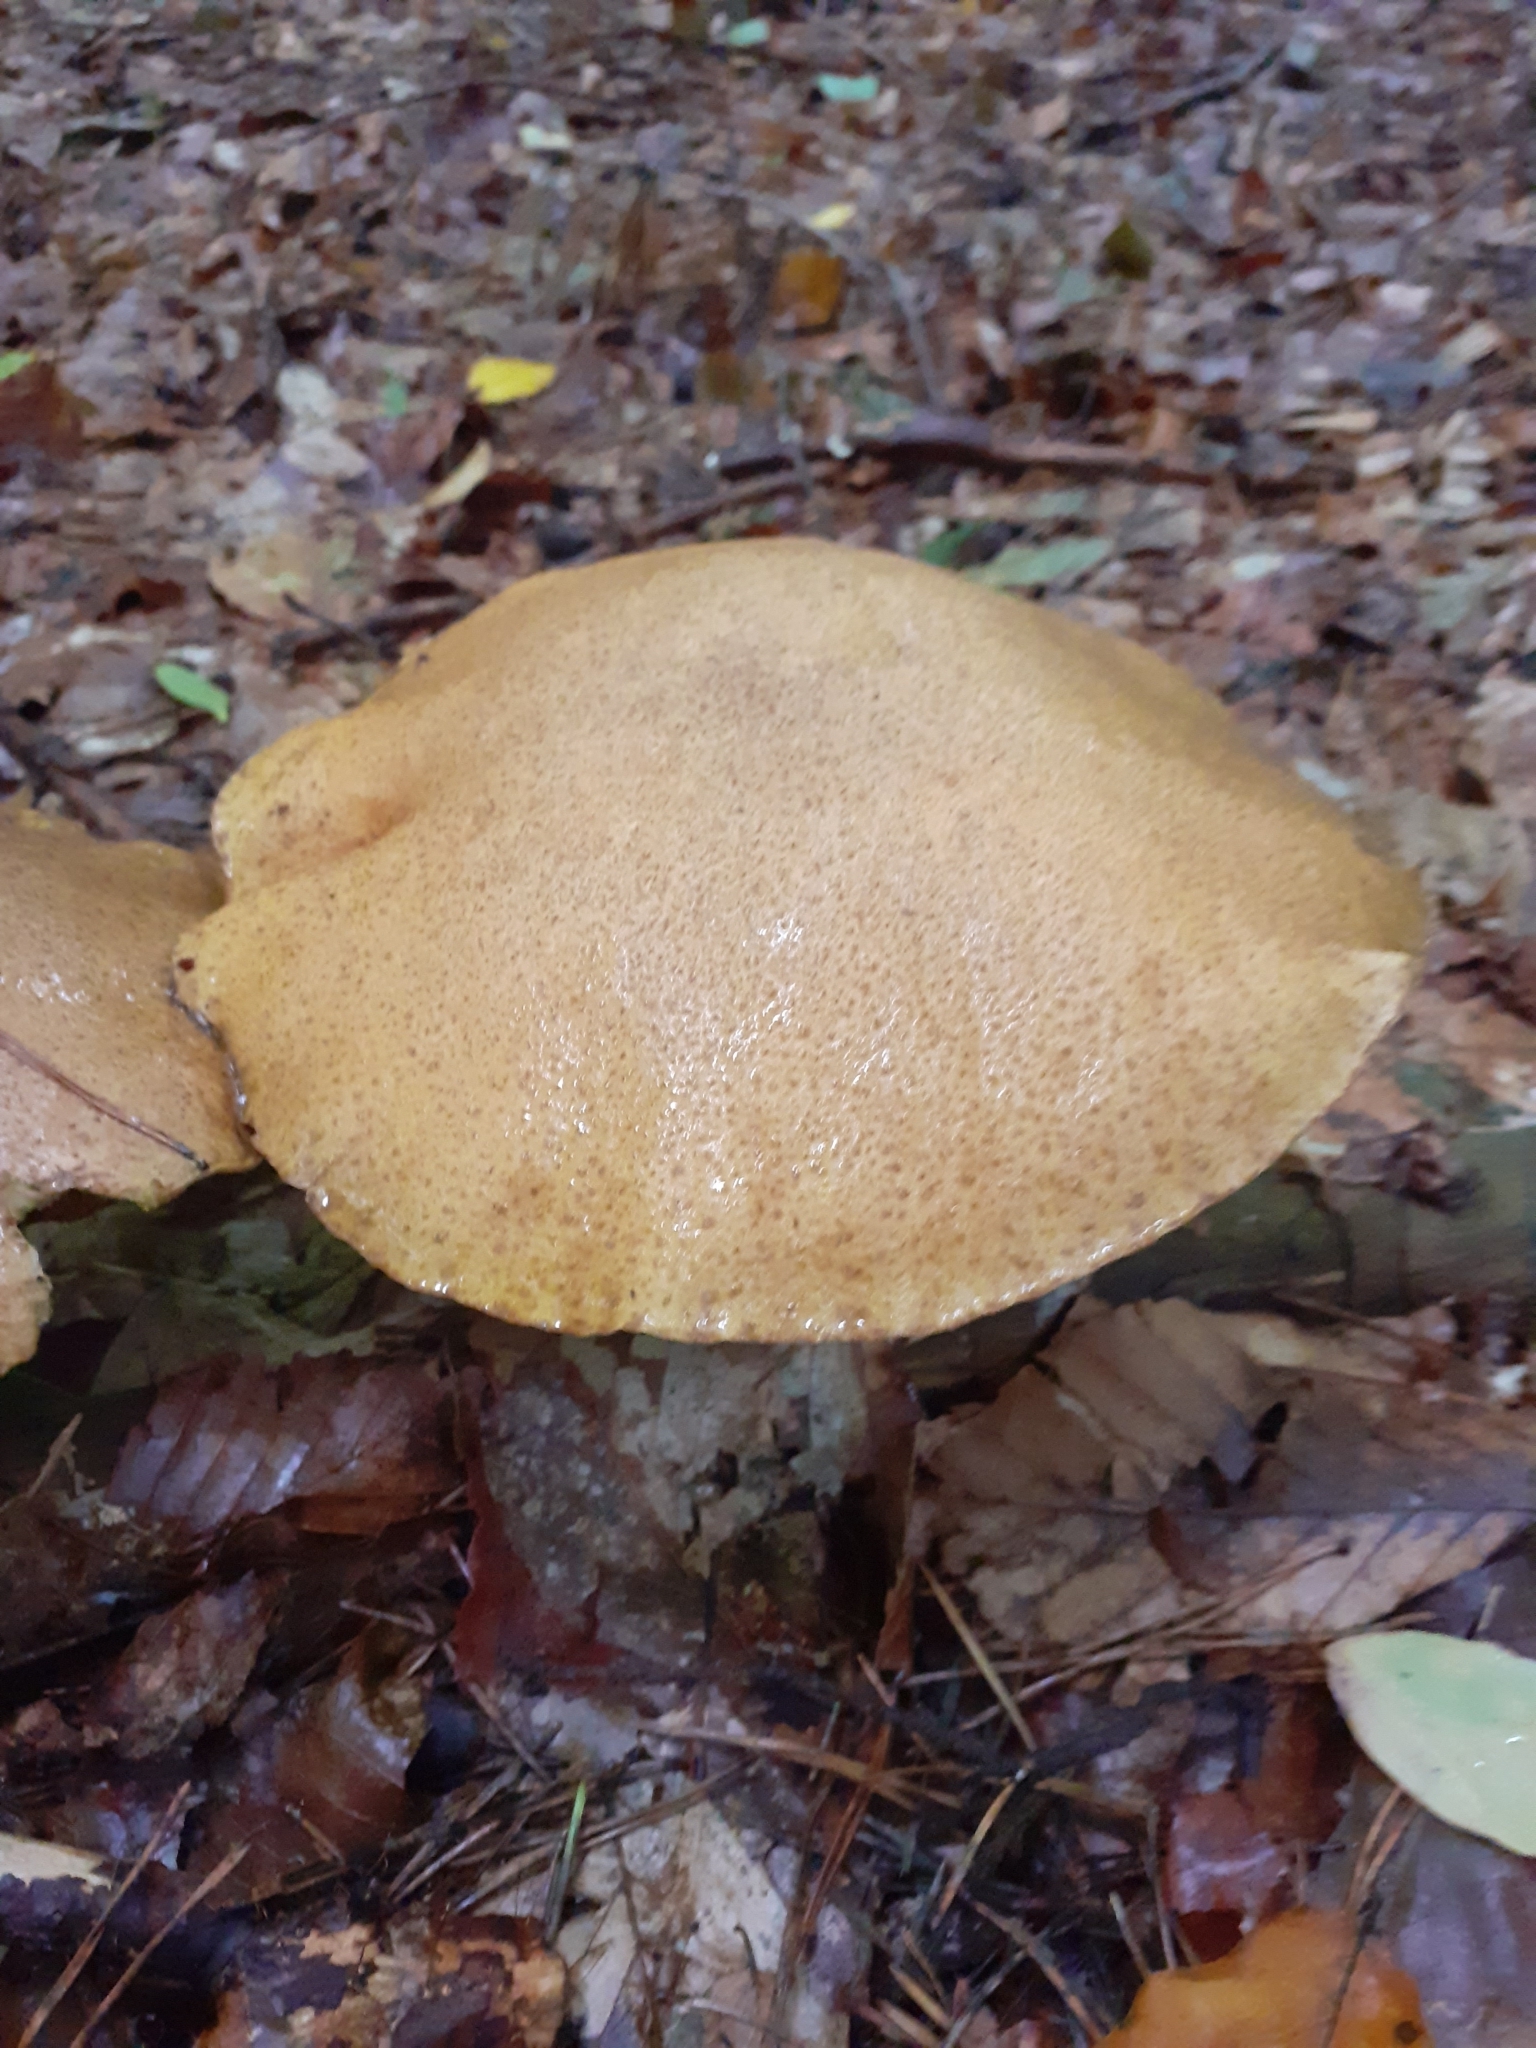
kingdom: Fungi
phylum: Basidiomycota
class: Agaricomycetes
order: Boletales
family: Suillaceae
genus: Suillus
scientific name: Suillus variegatus
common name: Velvet bolete
